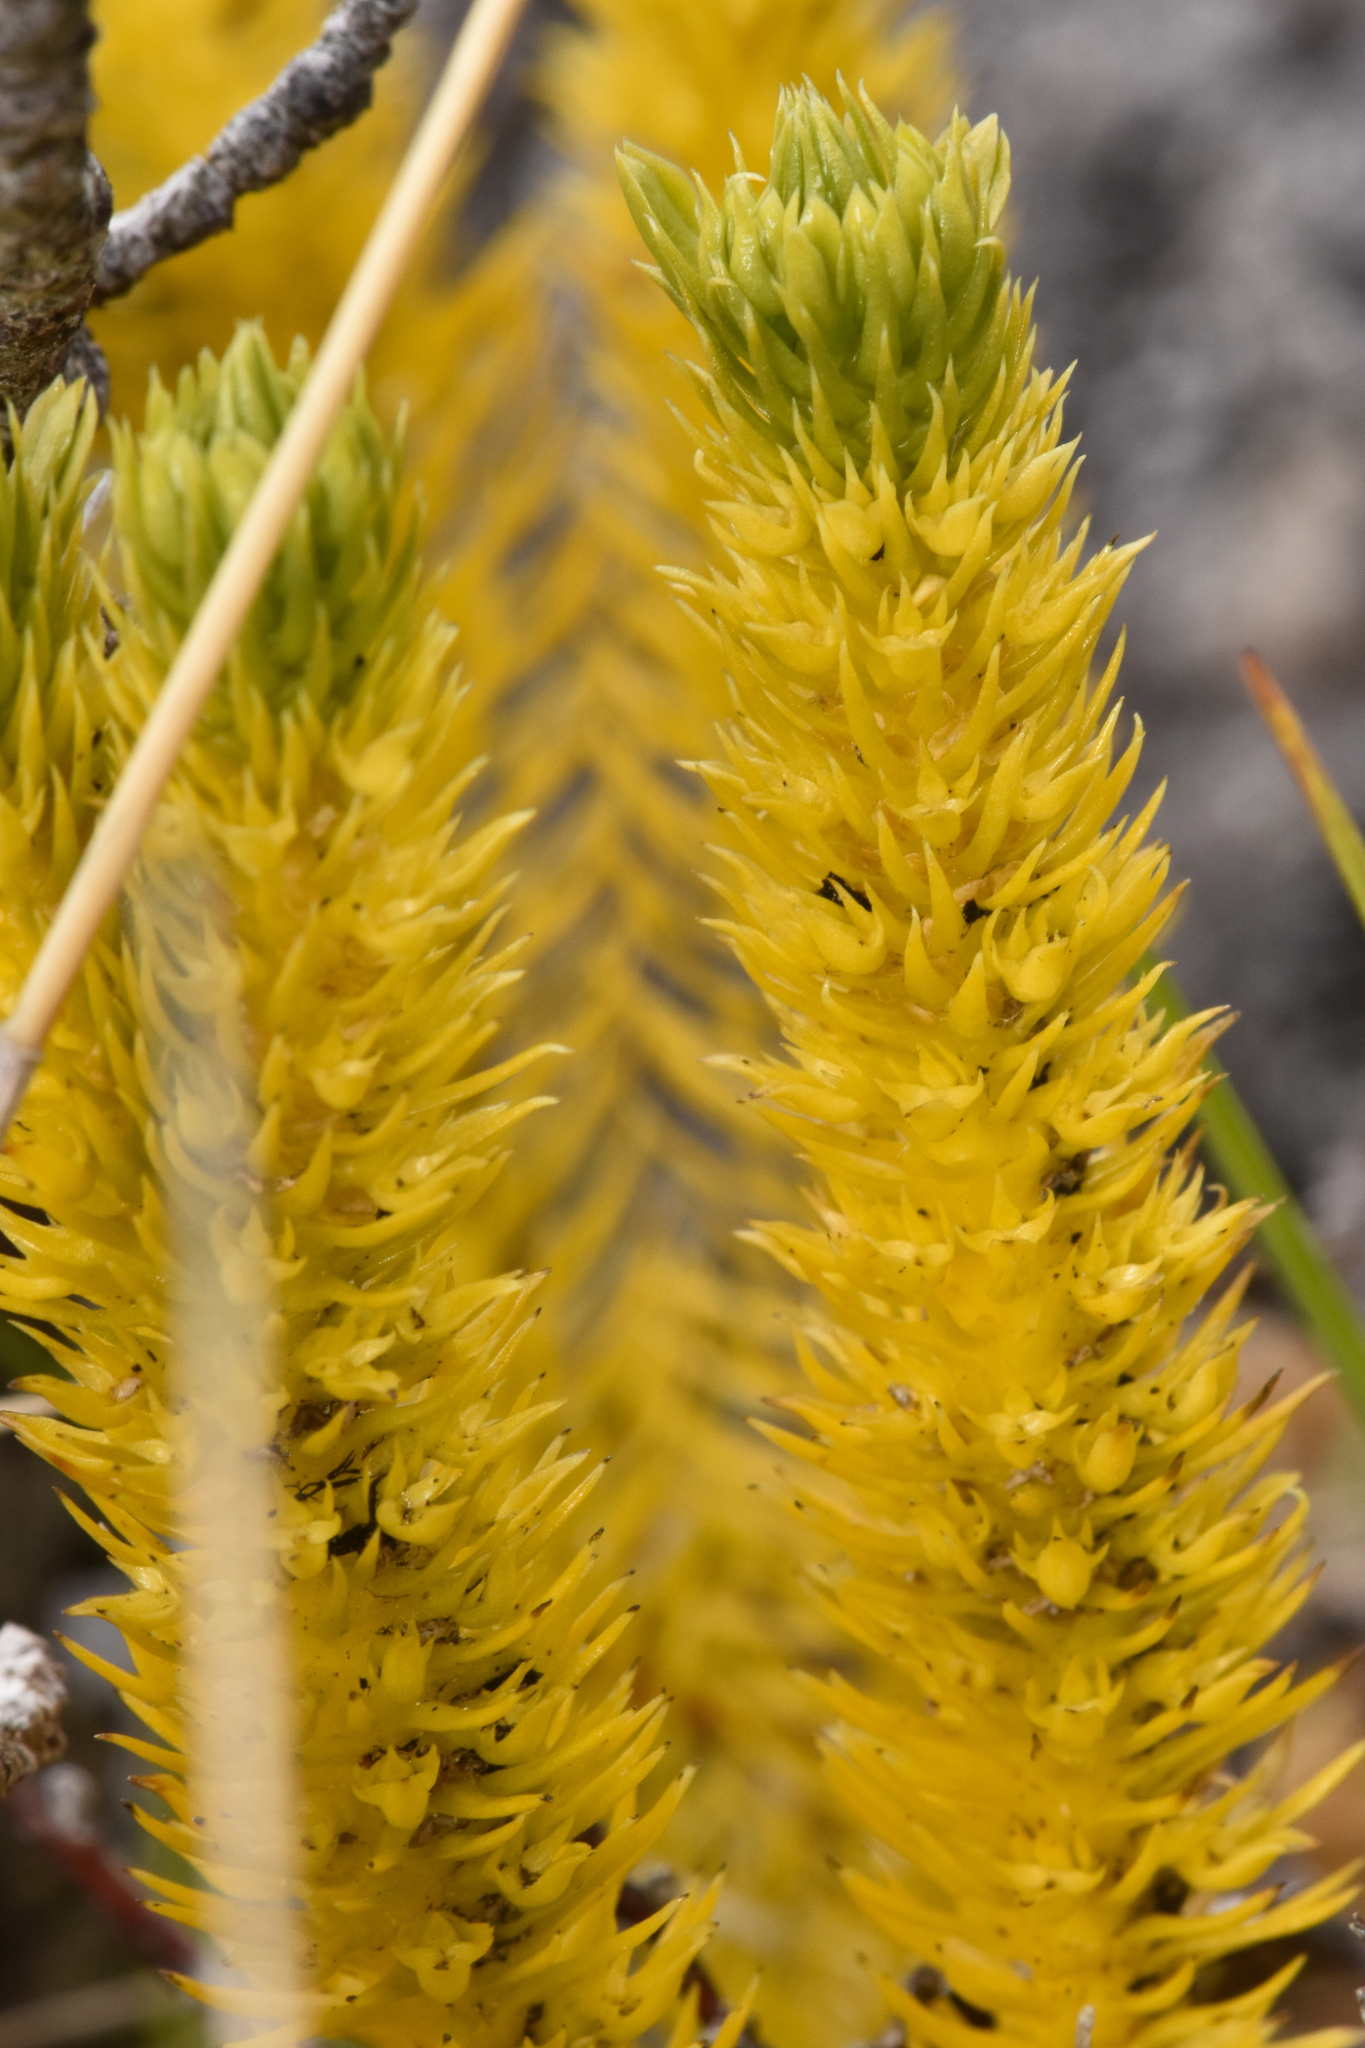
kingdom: Plantae
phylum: Tracheophyta
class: Lycopodiopsida
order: Lycopodiales
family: Lycopodiaceae
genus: Huperzia
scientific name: Huperzia continentalis
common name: Continental firmoss
